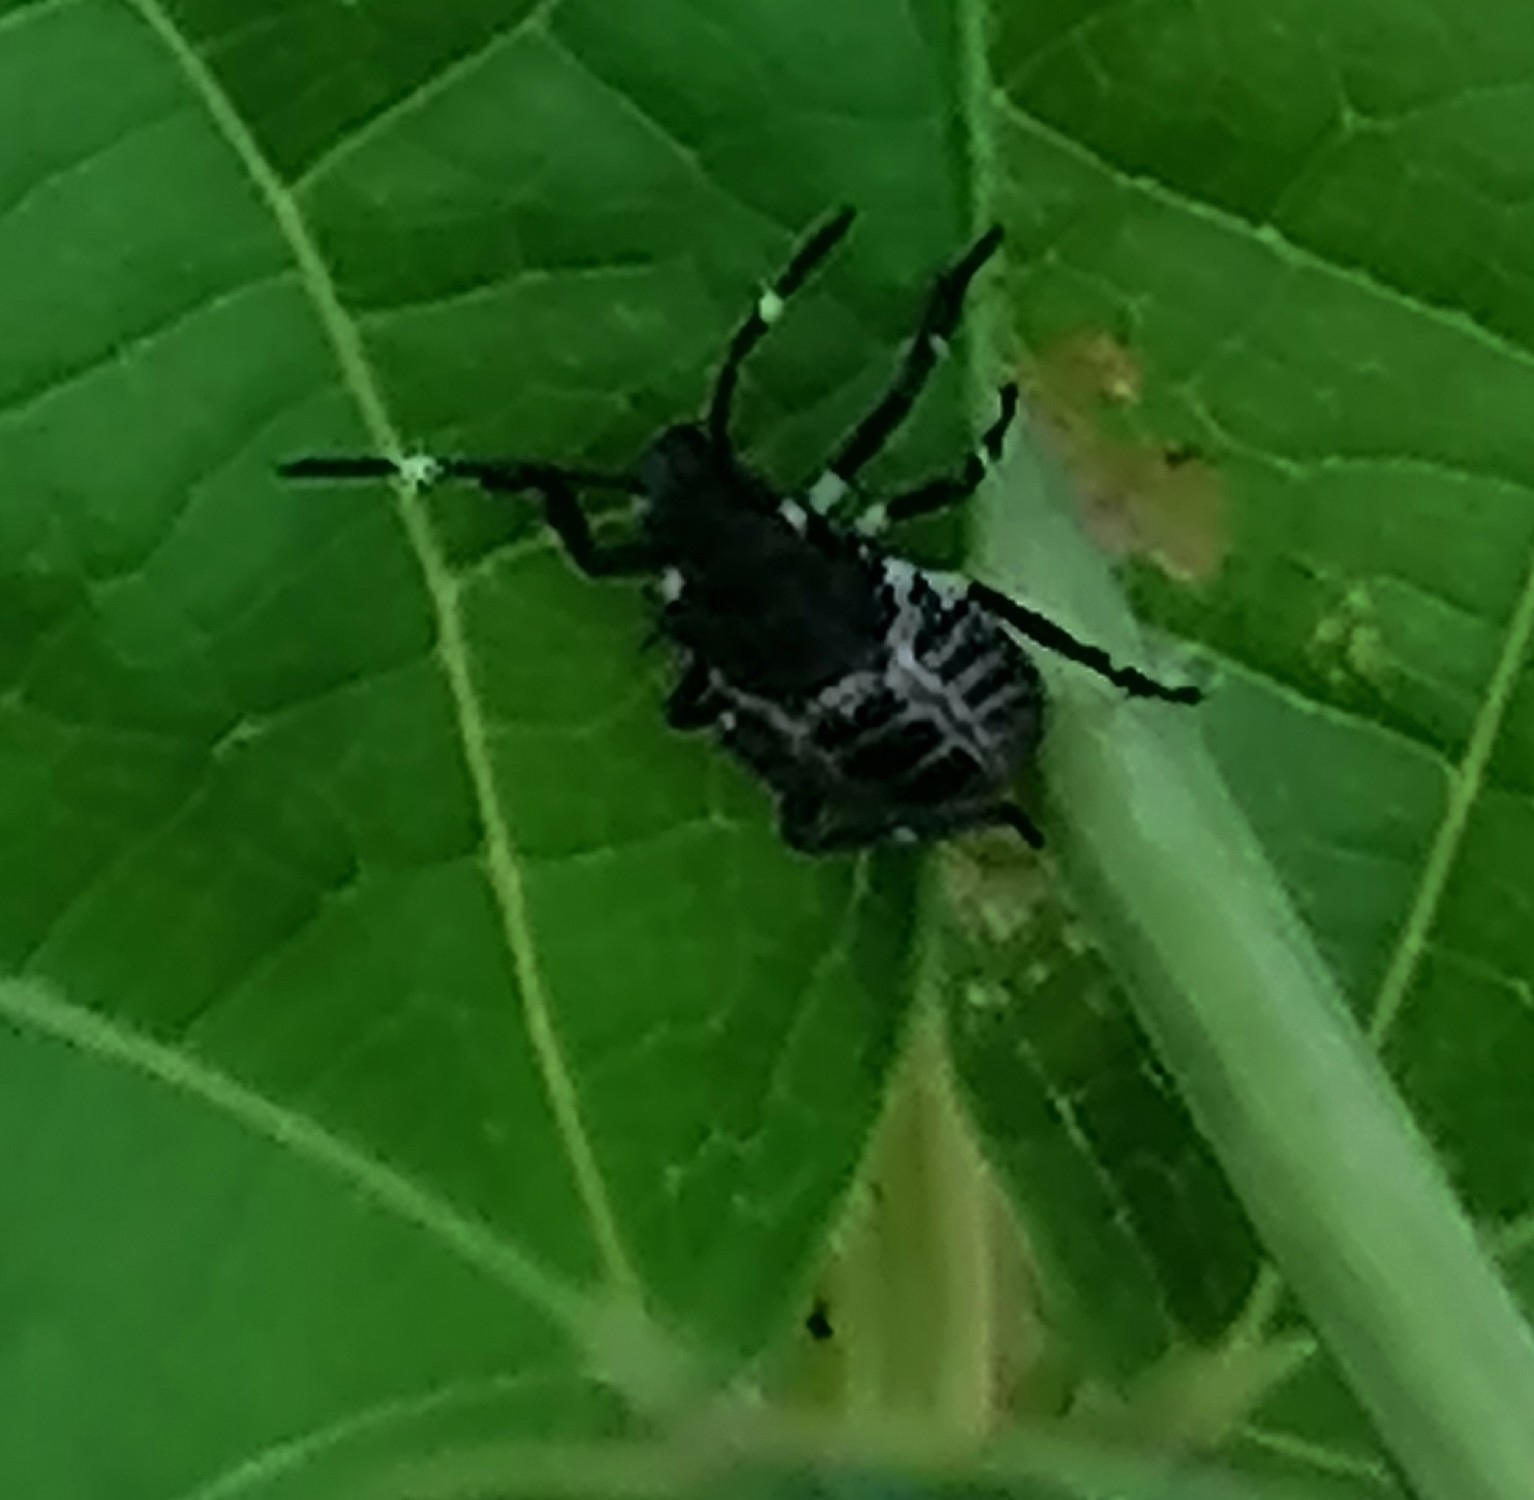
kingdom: Animalia
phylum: Arthropoda
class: Insecta
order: Hemiptera
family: Pentatomidae
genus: Halyomorpha
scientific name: Halyomorpha halys
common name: Brown marmorated stink bug
